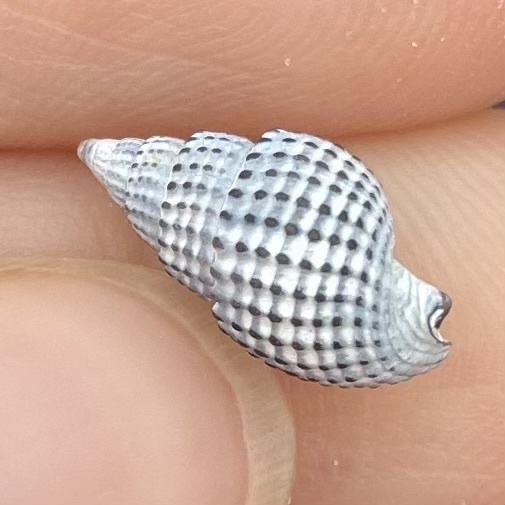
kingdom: Animalia
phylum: Mollusca
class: Gastropoda
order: Neogastropoda
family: Nassariidae
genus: Ilyanassa
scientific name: Ilyanassa trivittata
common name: Three-line mudsnail
